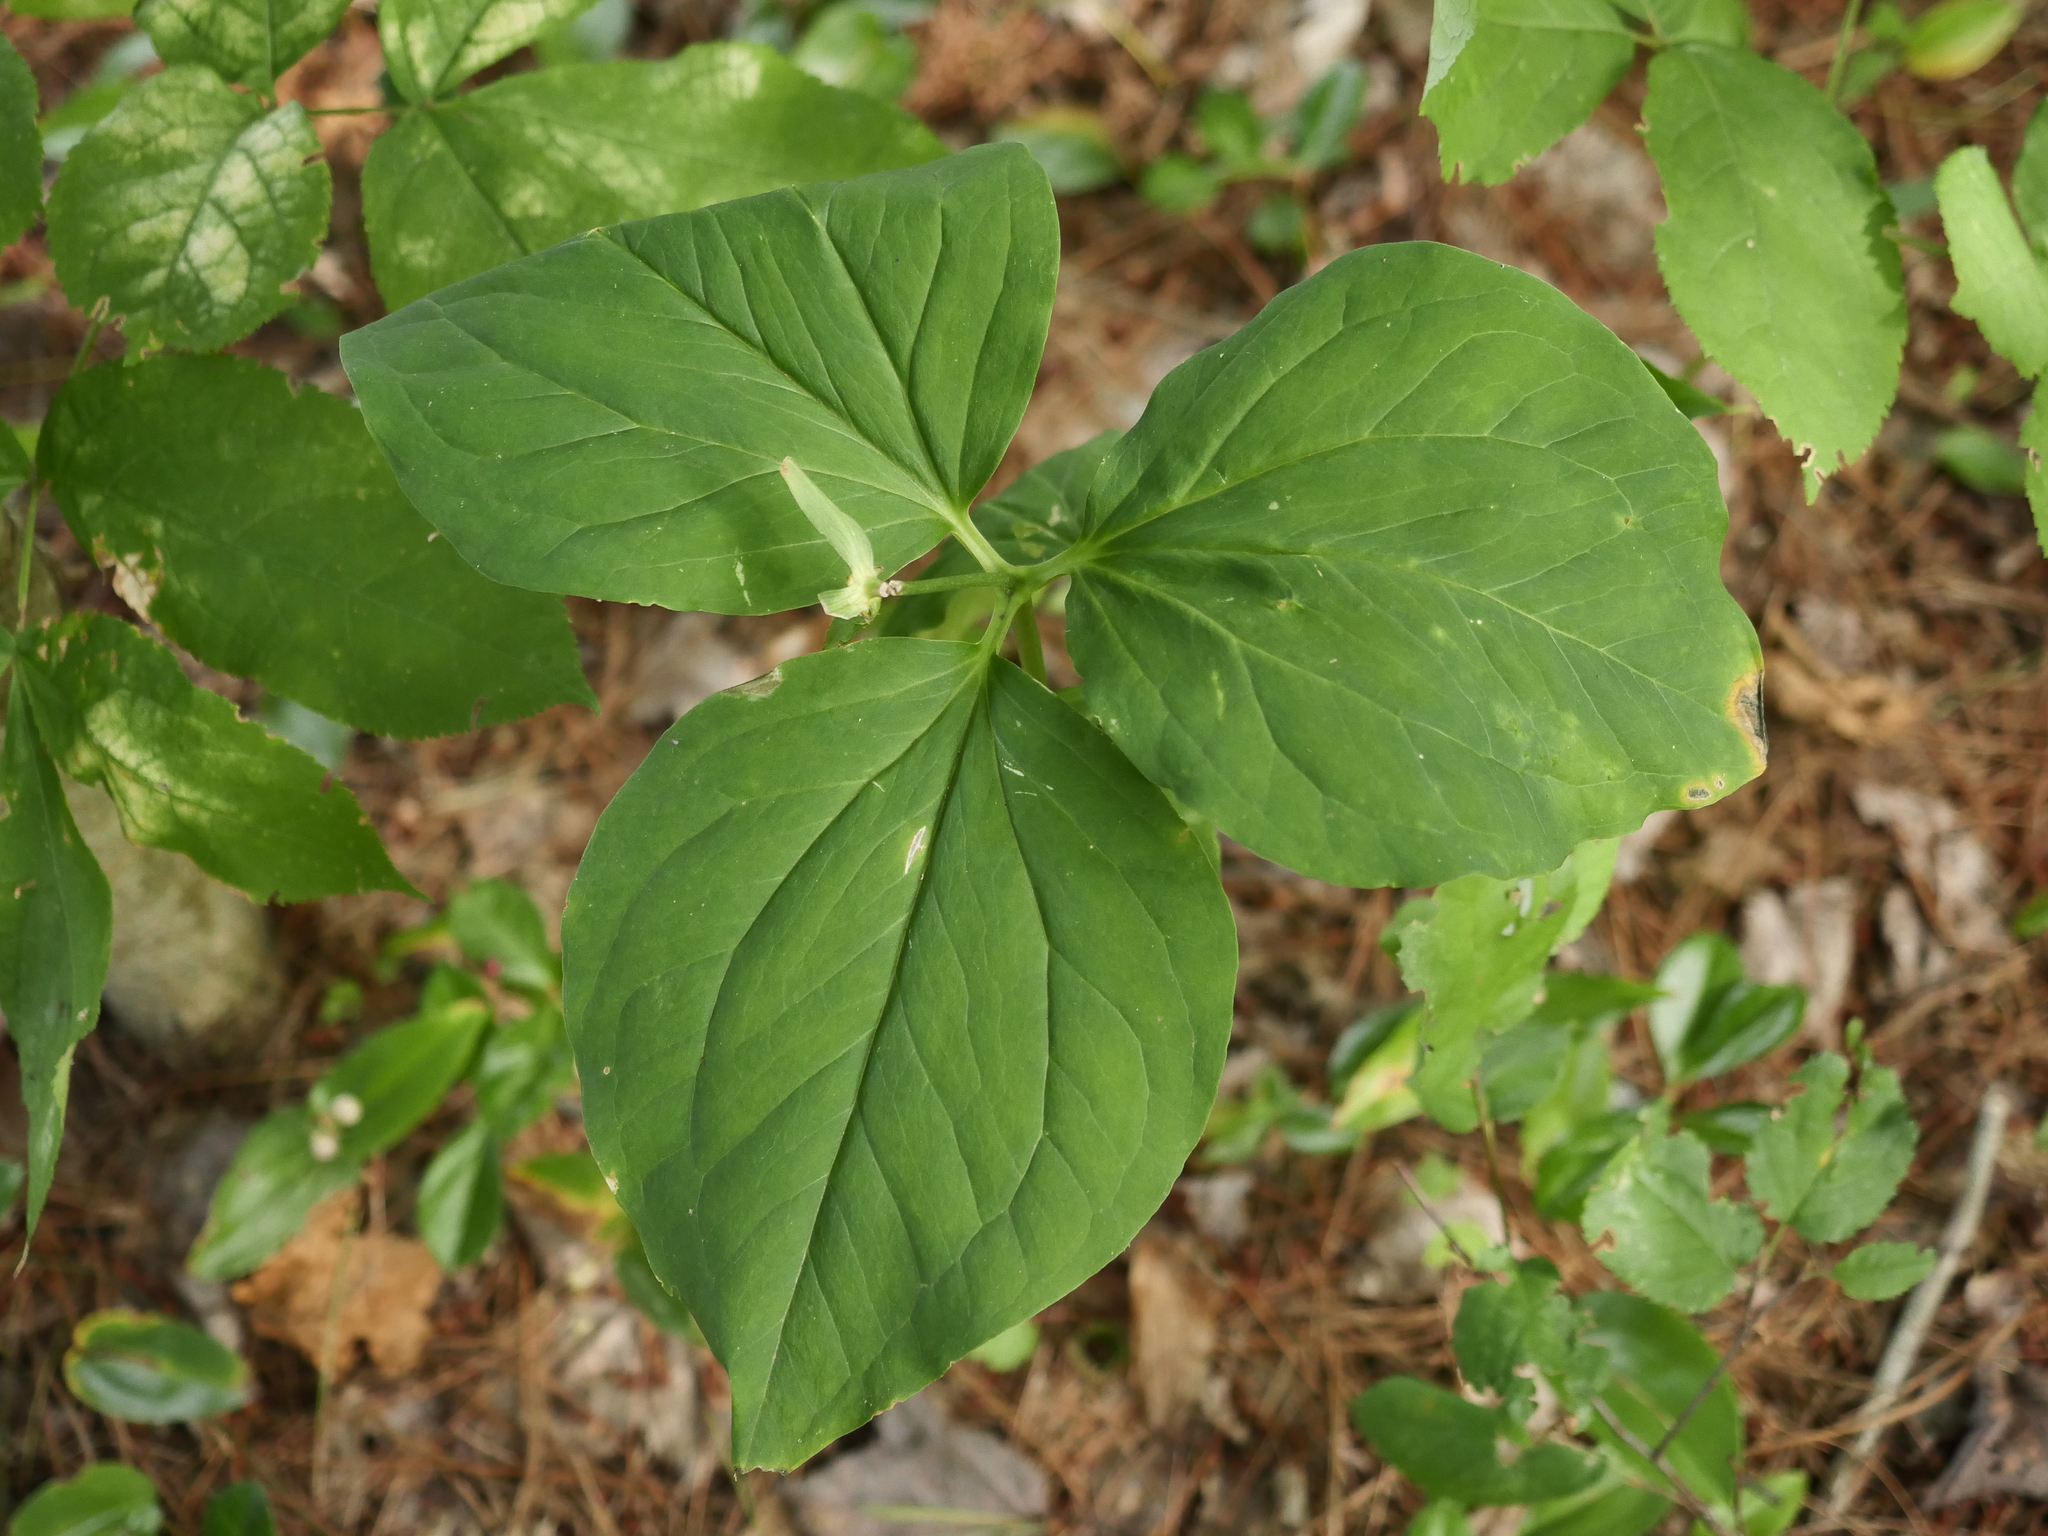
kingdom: Plantae
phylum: Tracheophyta
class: Liliopsida
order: Liliales
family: Melanthiaceae
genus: Trillium
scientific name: Trillium undulatum
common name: Paint trillium
